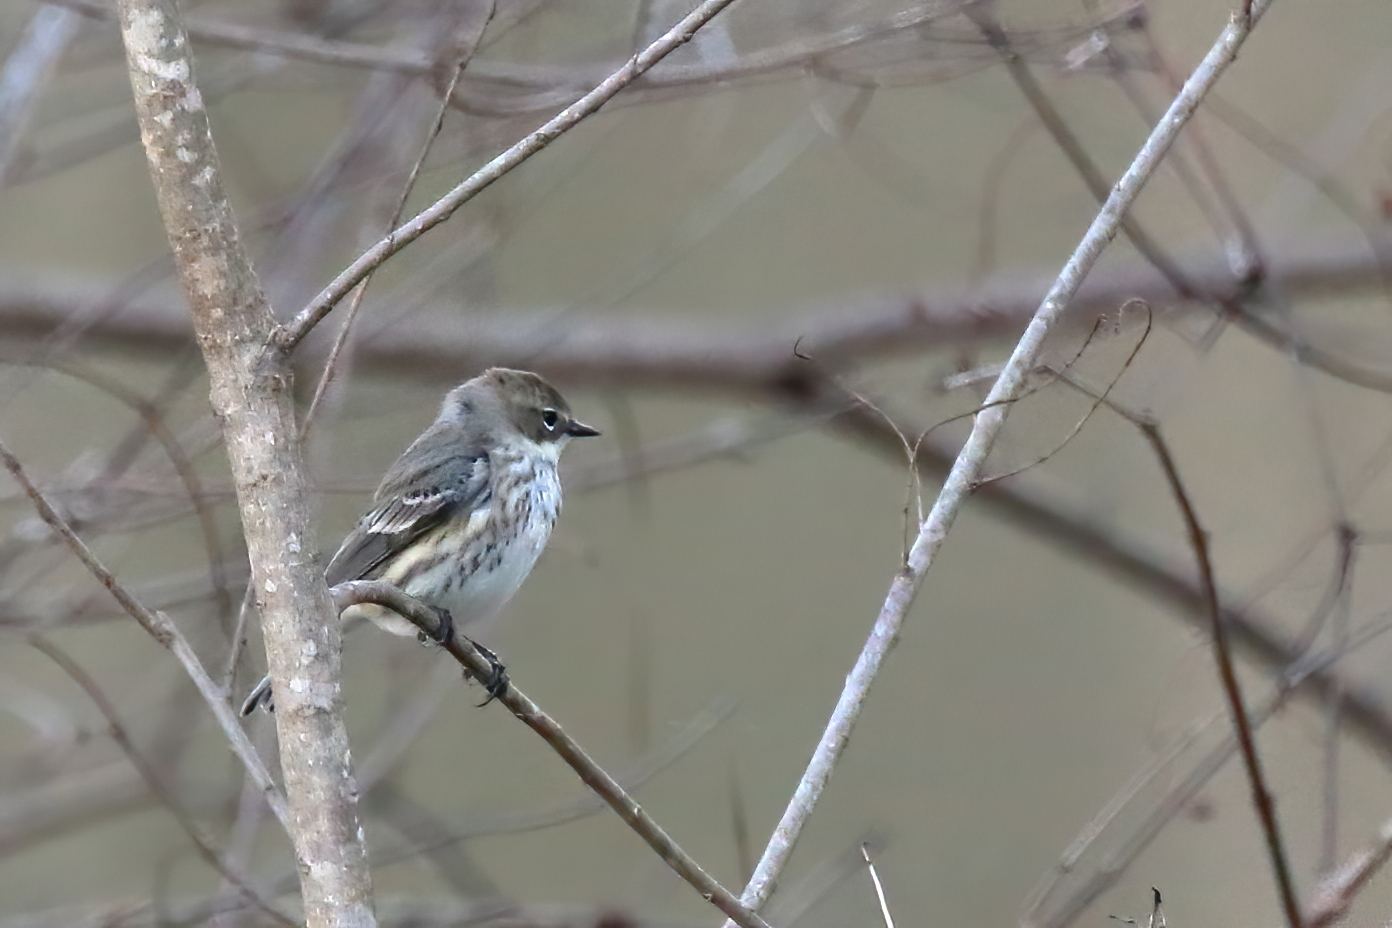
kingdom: Animalia
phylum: Chordata
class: Aves
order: Passeriformes
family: Parulidae
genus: Setophaga
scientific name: Setophaga coronata
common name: Myrtle warbler
